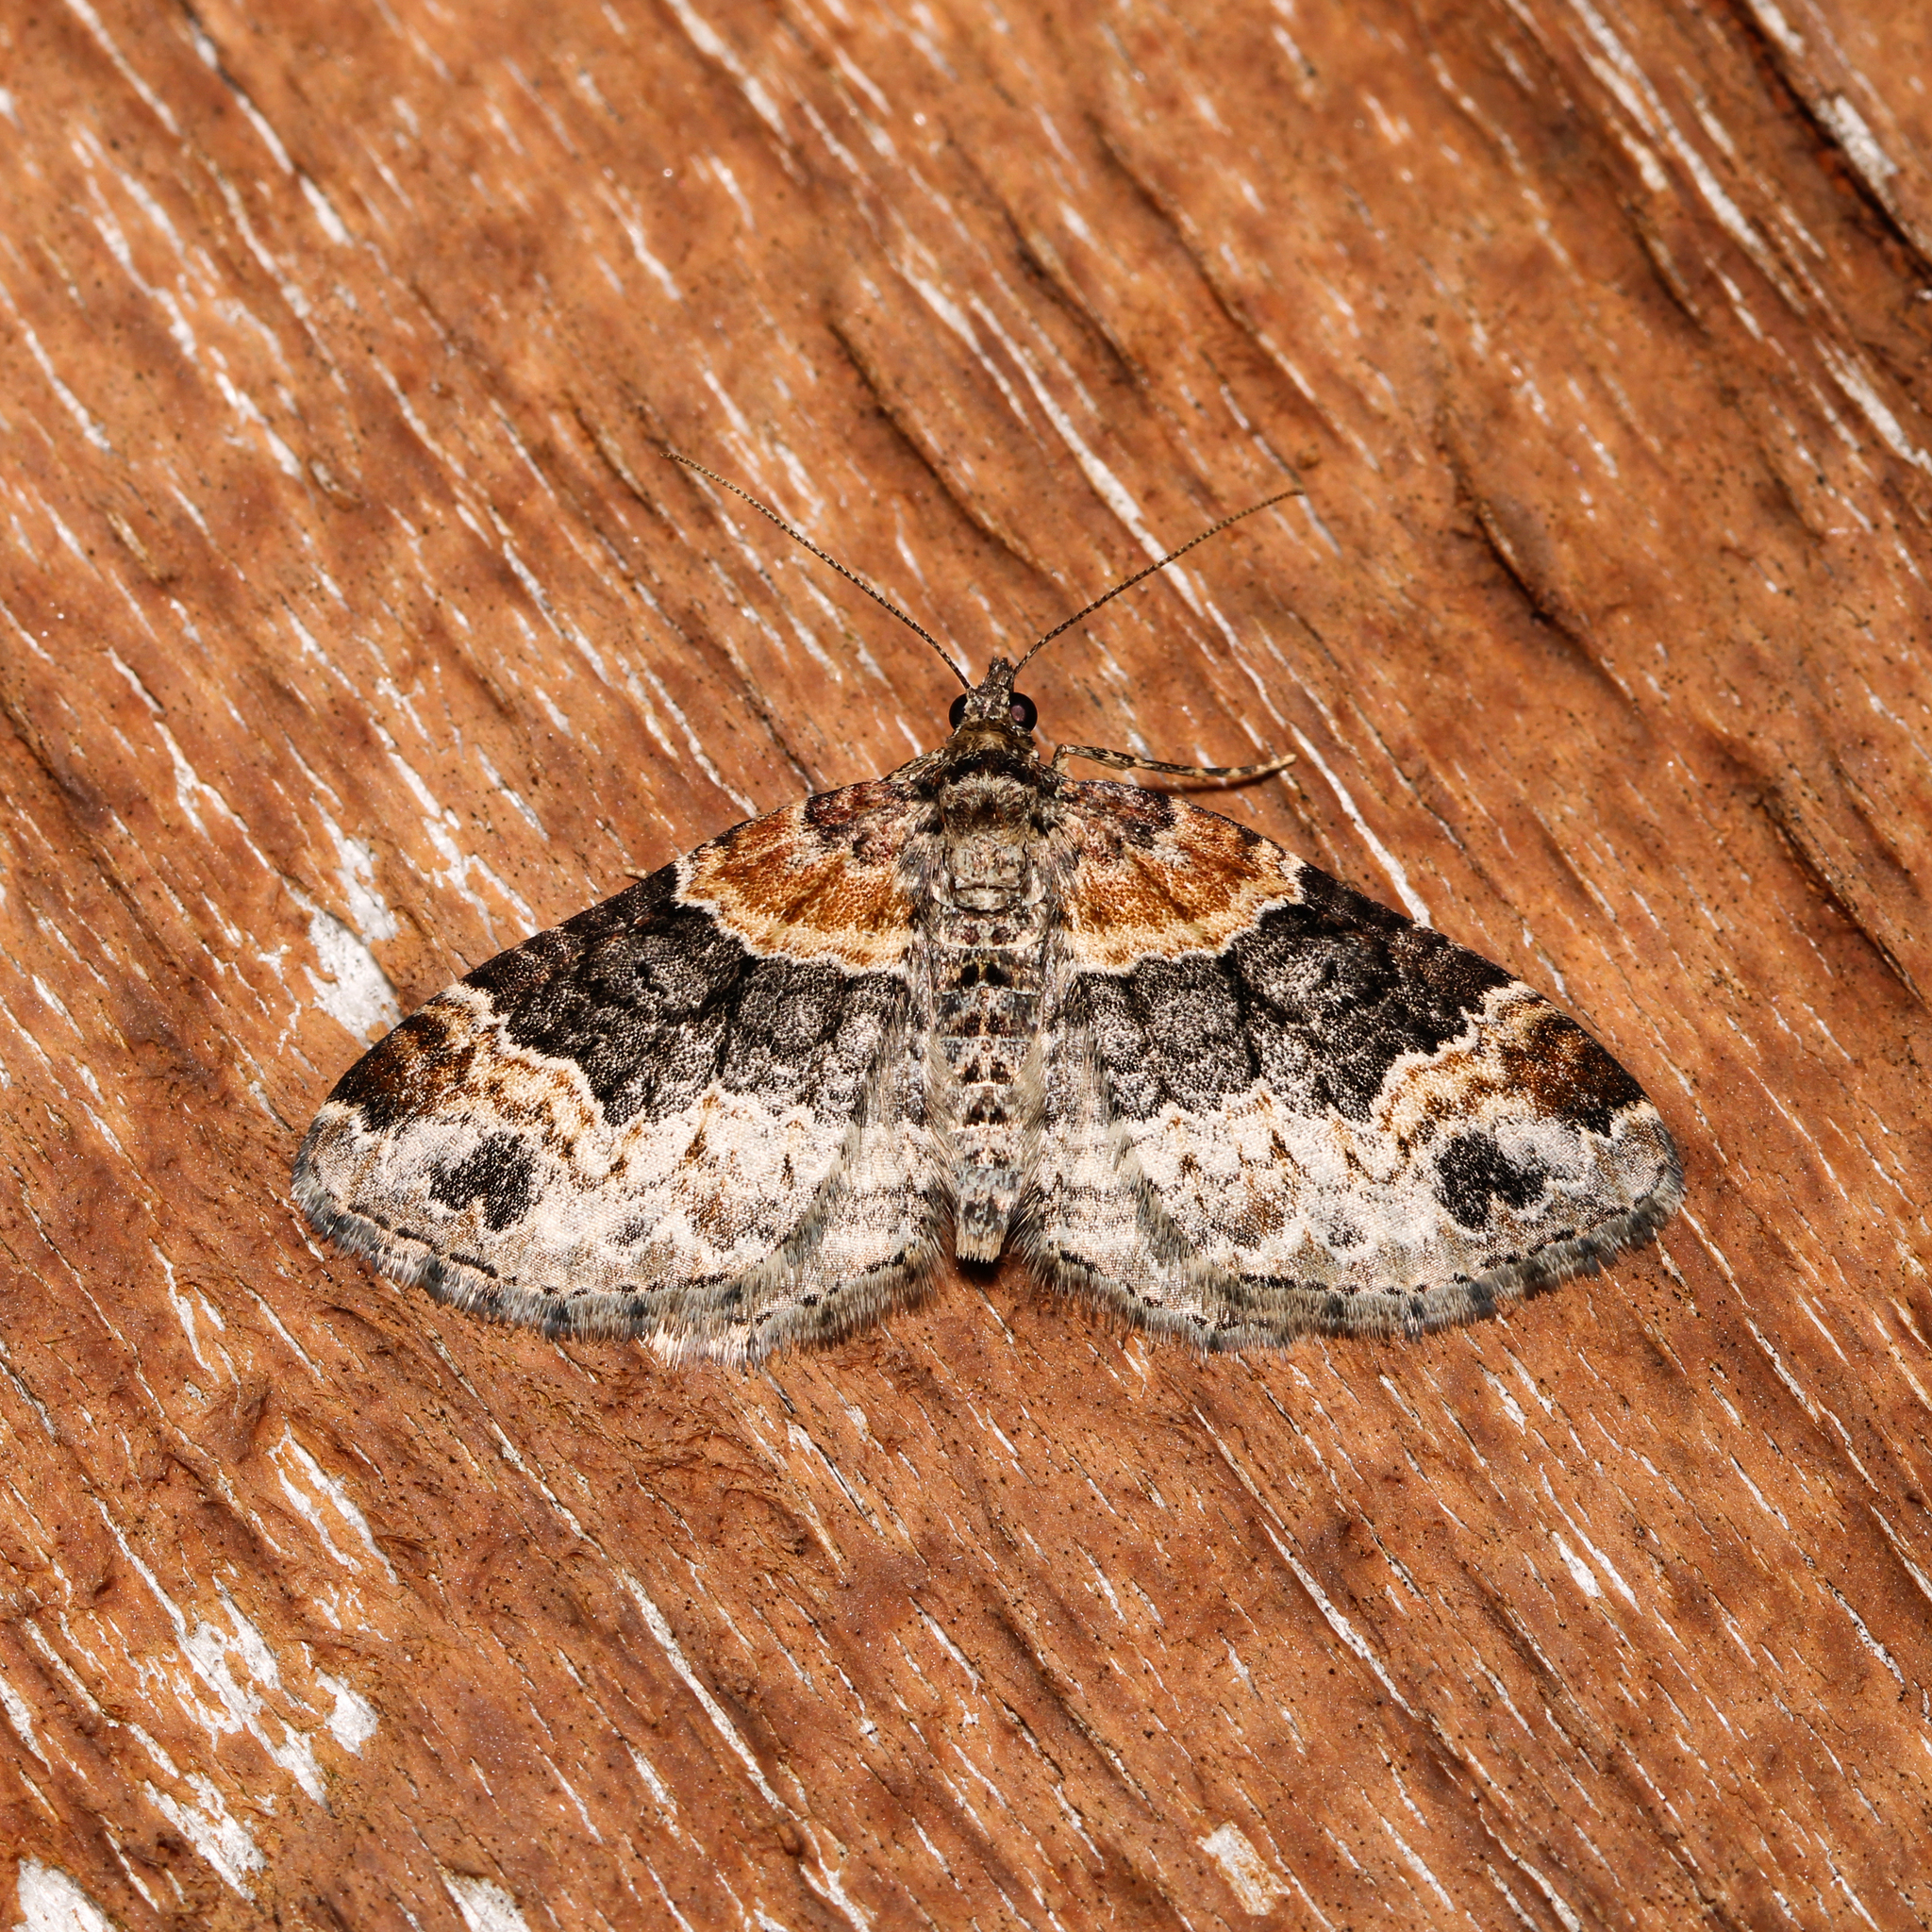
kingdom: Animalia
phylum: Arthropoda
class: Insecta
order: Lepidoptera
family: Geometridae
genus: Xanthorhoe
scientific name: Xanthorhoe ferrugata
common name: Dark-barred twin-spot carpet
